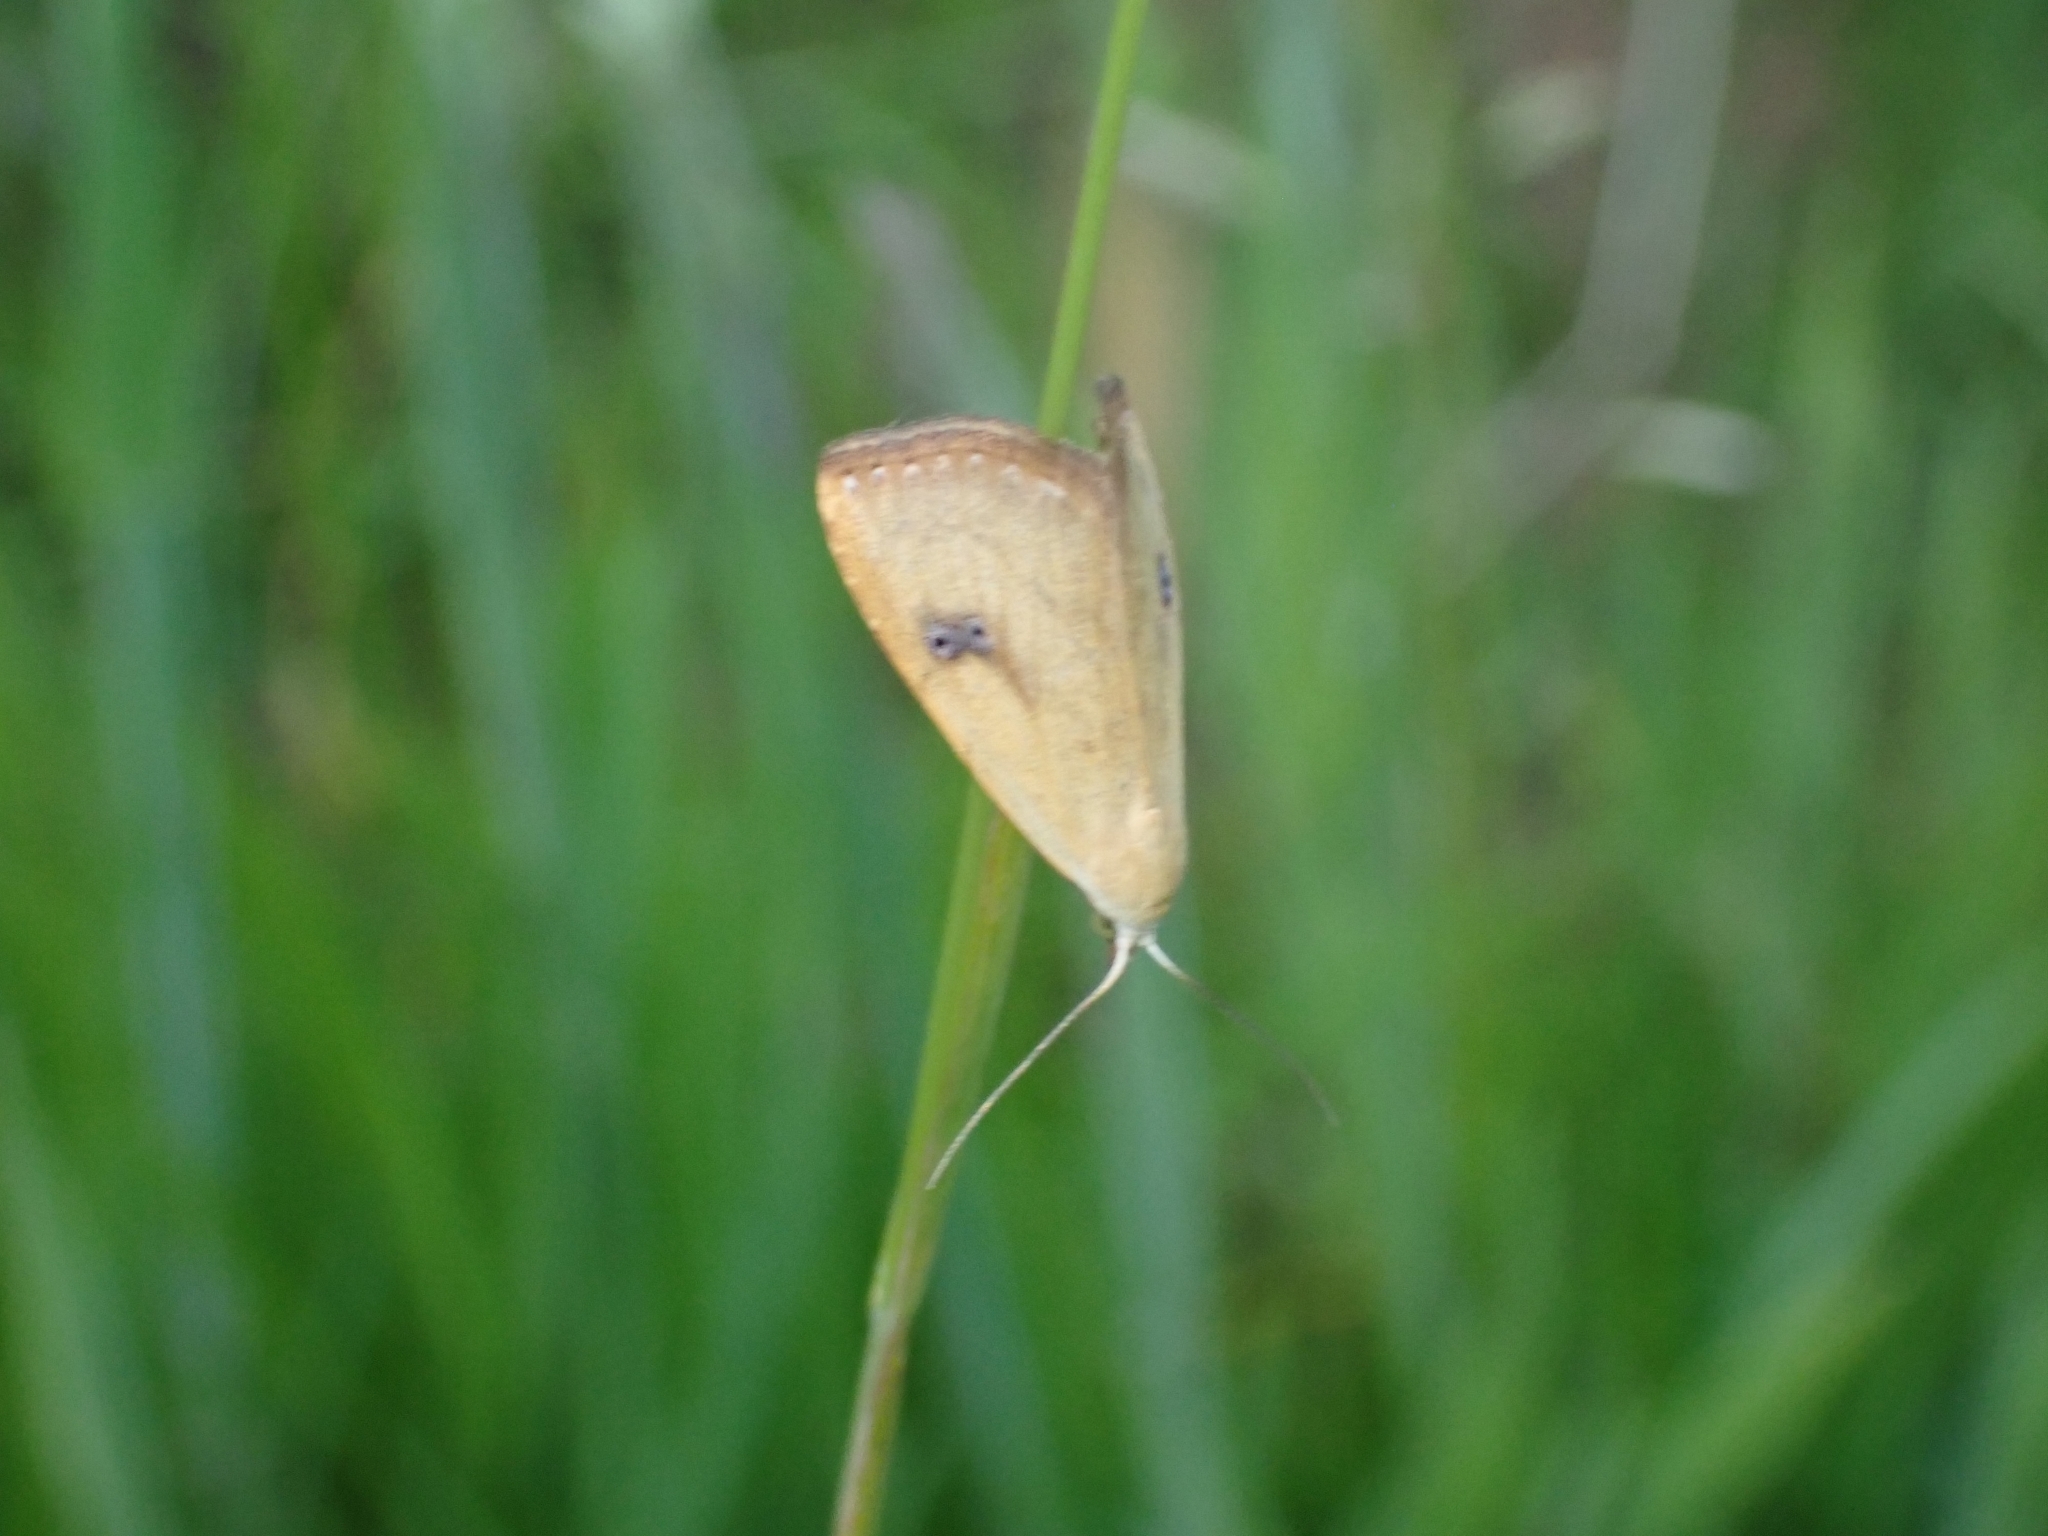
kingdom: Animalia
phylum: Arthropoda
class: Insecta
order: Lepidoptera
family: Erebidae
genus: Rivula
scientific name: Rivula sericealis
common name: Straw dot
